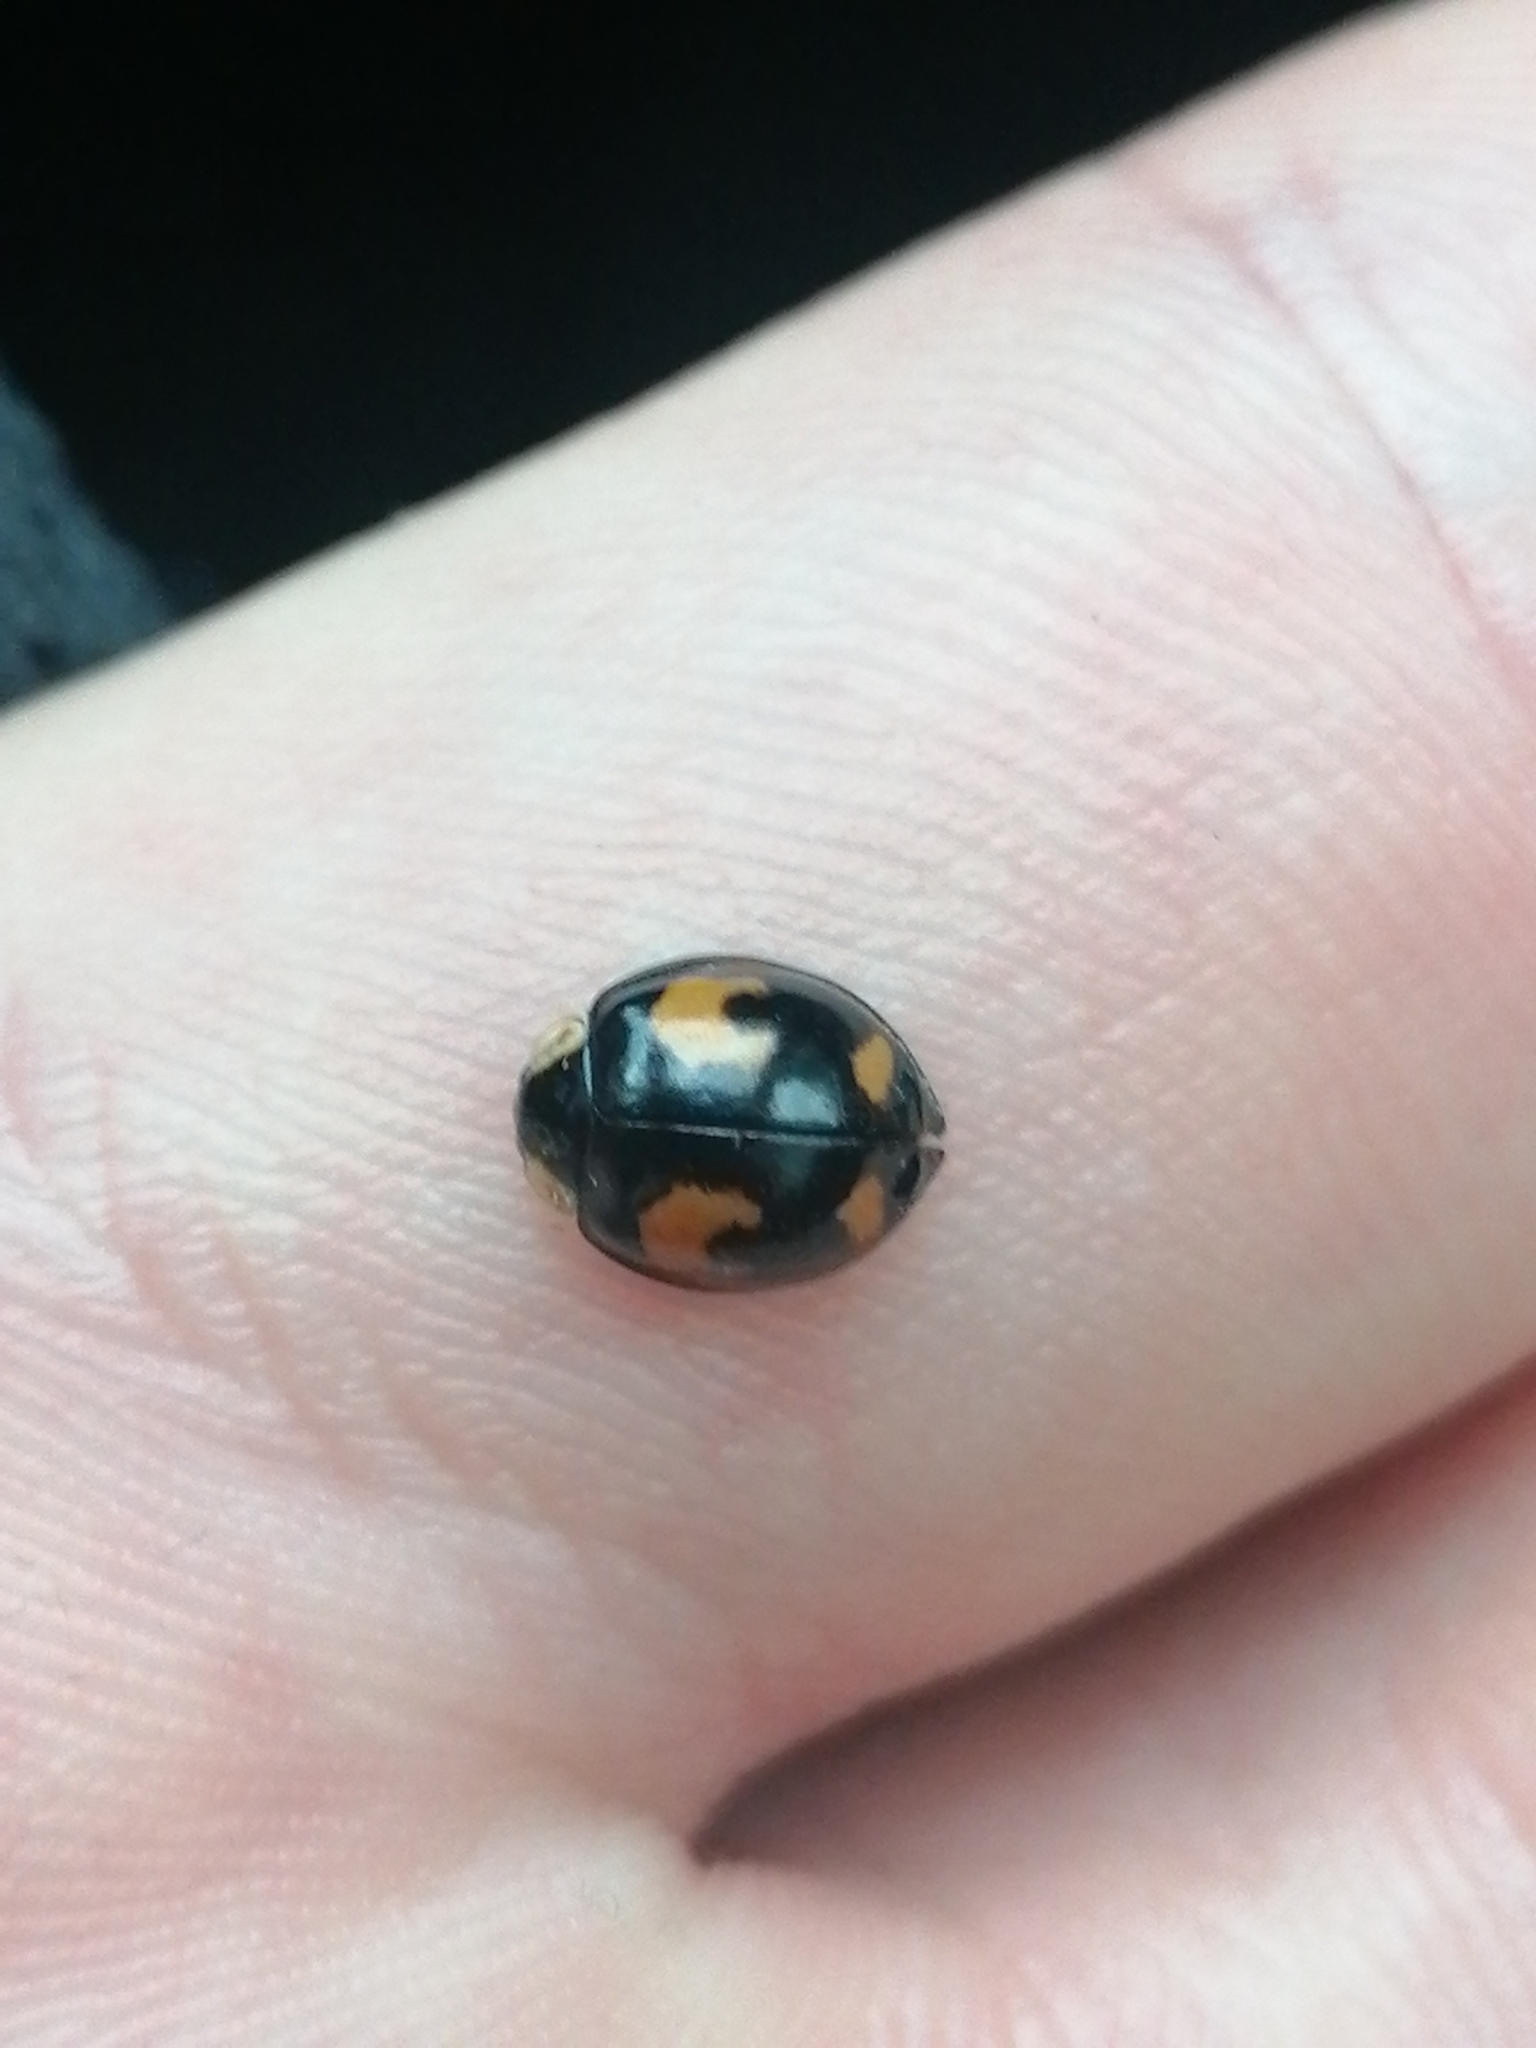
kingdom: Animalia
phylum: Arthropoda
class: Insecta
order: Coleoptera
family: Coccinellidae
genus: Harmonia
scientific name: Harmonia axyridis
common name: Harlequin ladybird
